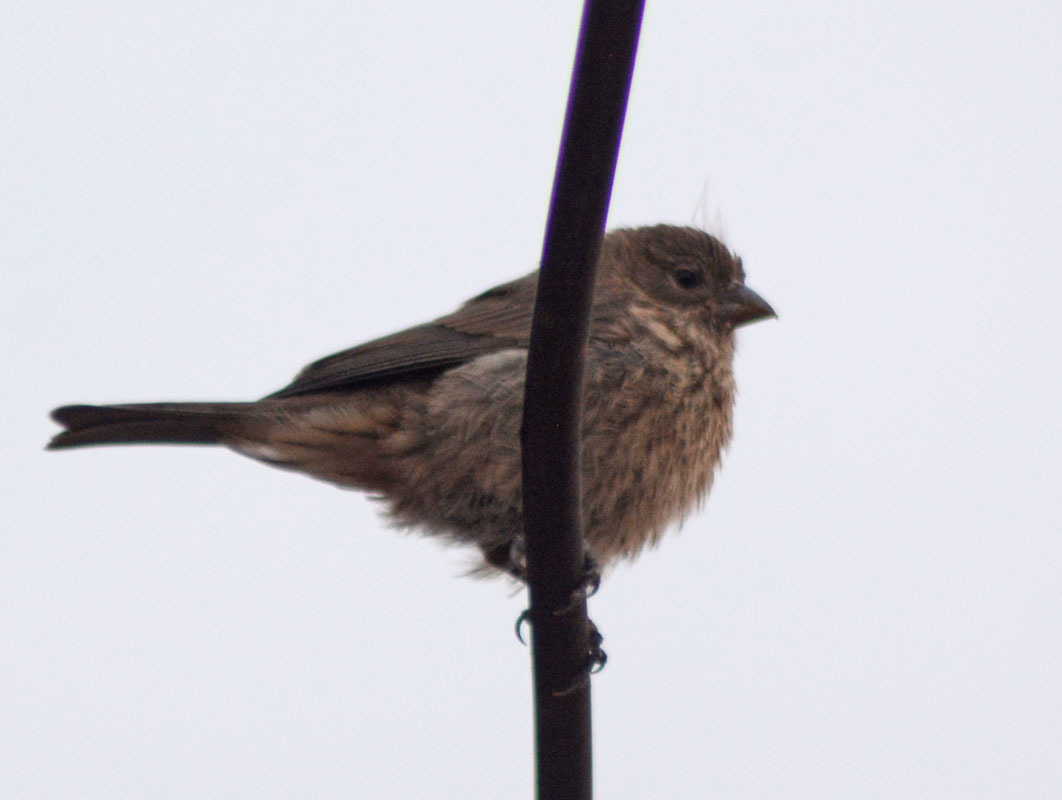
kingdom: Animalia
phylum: Chordata
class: Aves
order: Passeriformes
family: Fringillidae
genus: Haemorhous
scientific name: Haemorhous mexicanus
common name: House finch
